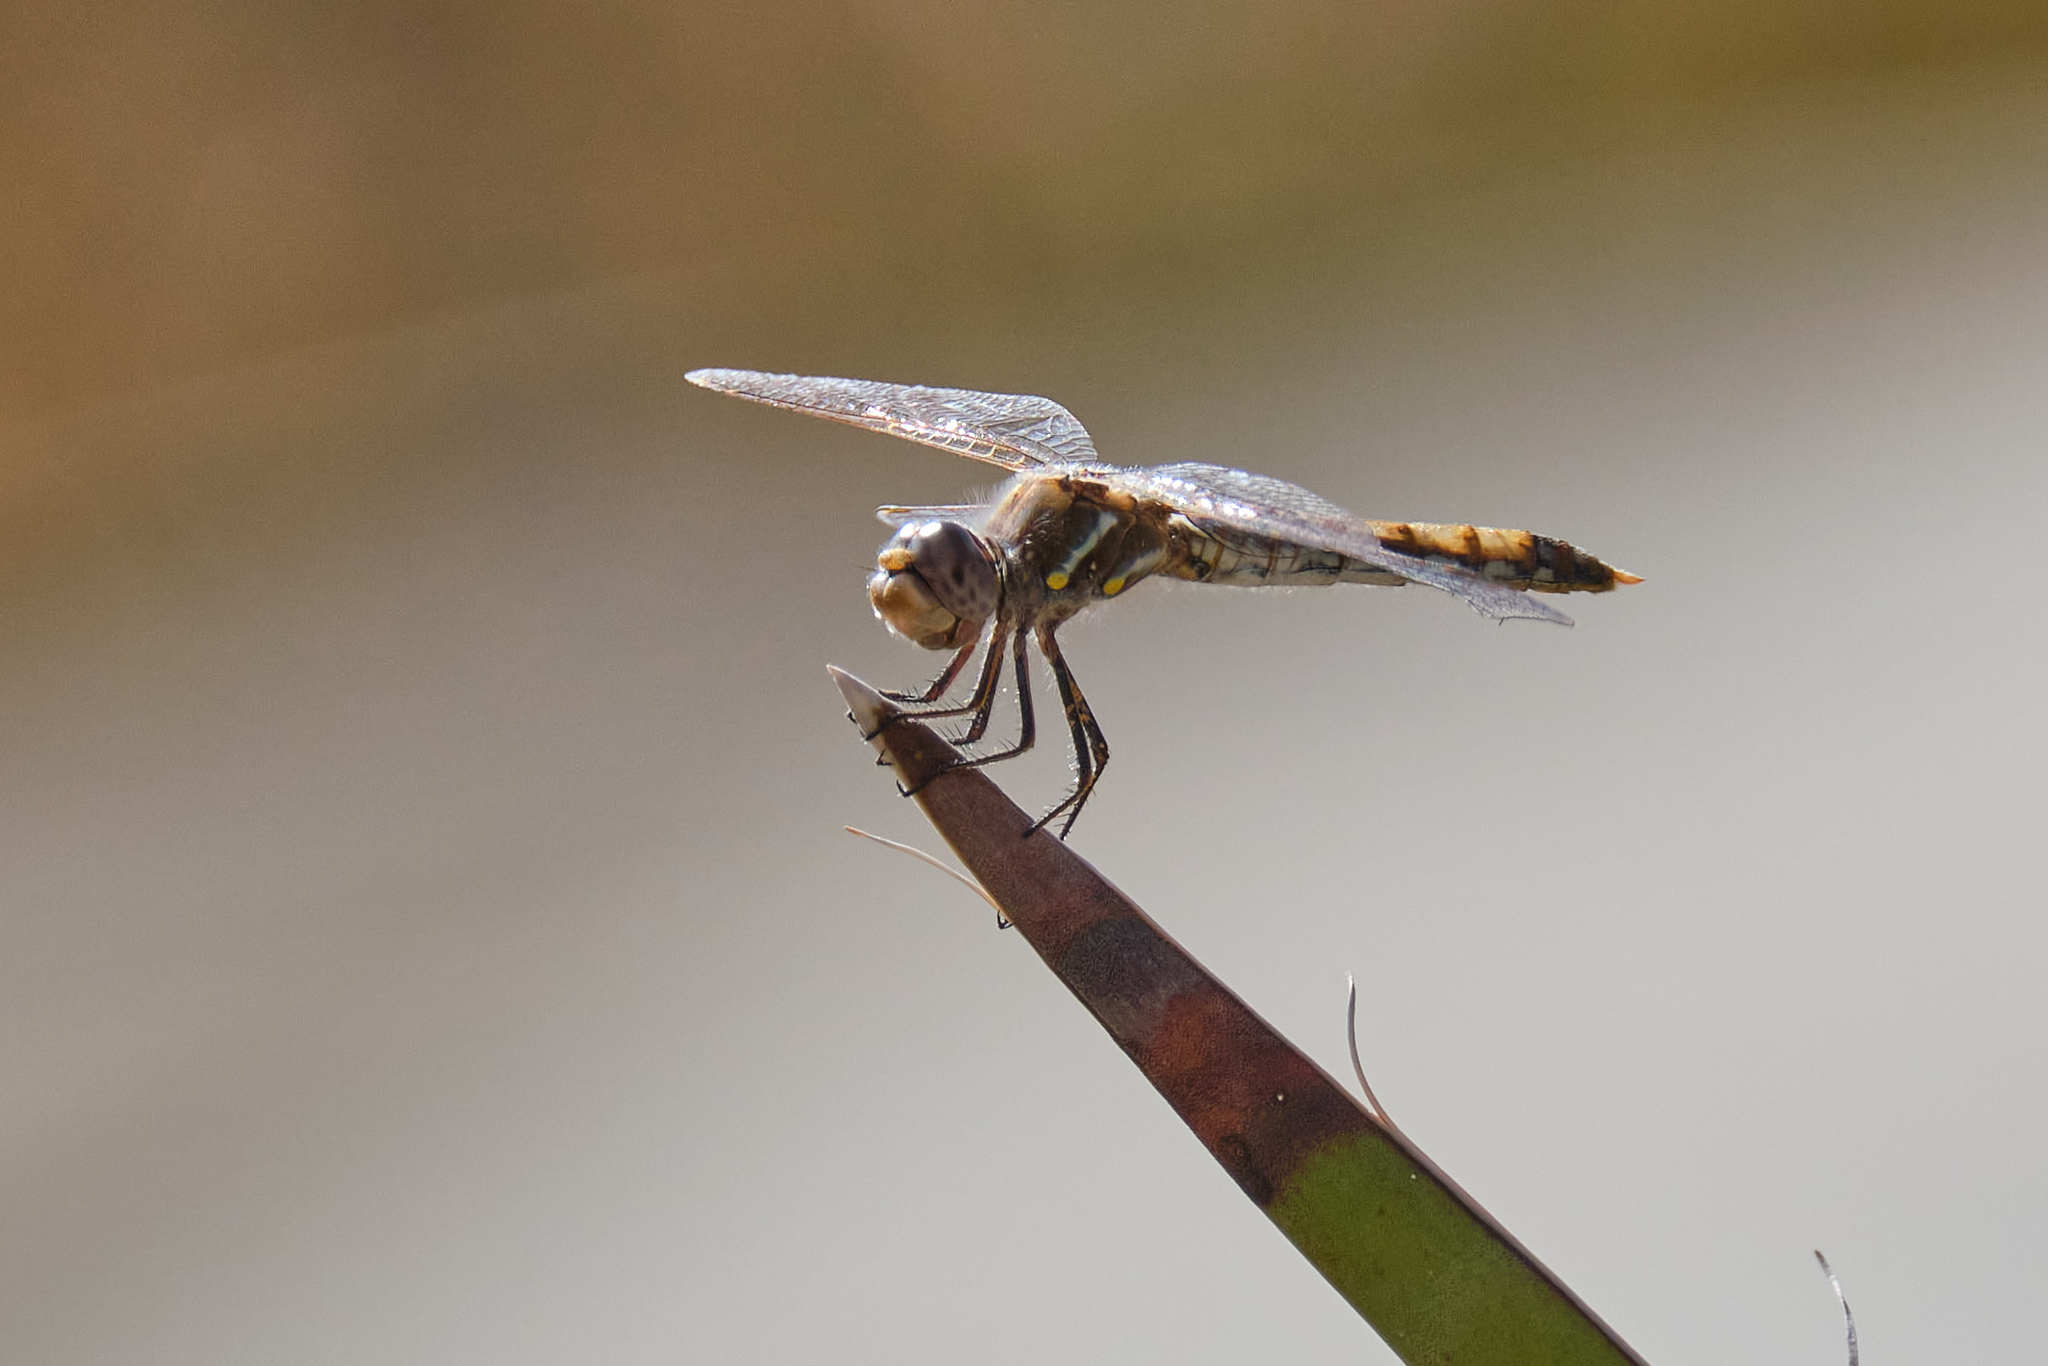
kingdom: Animalia
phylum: Arthropoda
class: Insecta
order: Odonata
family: Libellulidae
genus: Sympetrum
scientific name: Sympetrum corruptum
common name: Variegated meadowhawk
